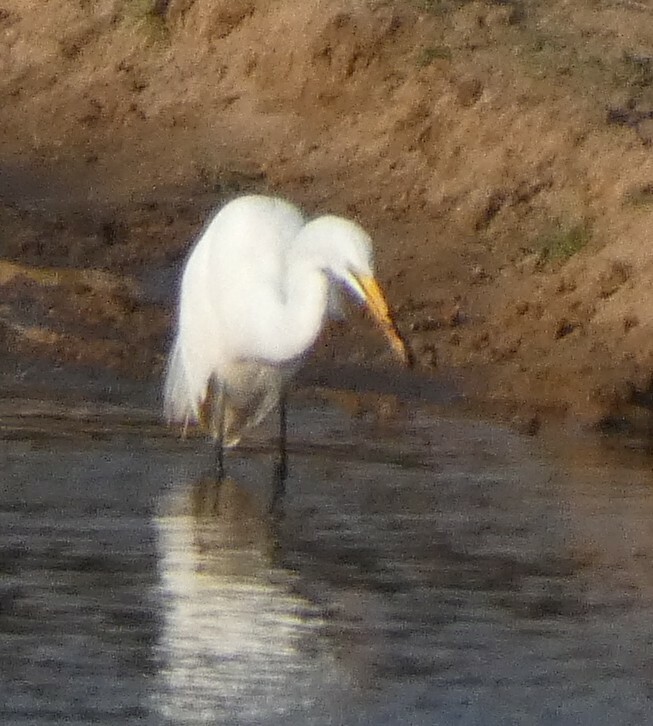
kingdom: Animalia
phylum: Chordata
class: Aves
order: Pelecaniformes
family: Ardeidae
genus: Ardea
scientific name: Ardea alba
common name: Great egret
